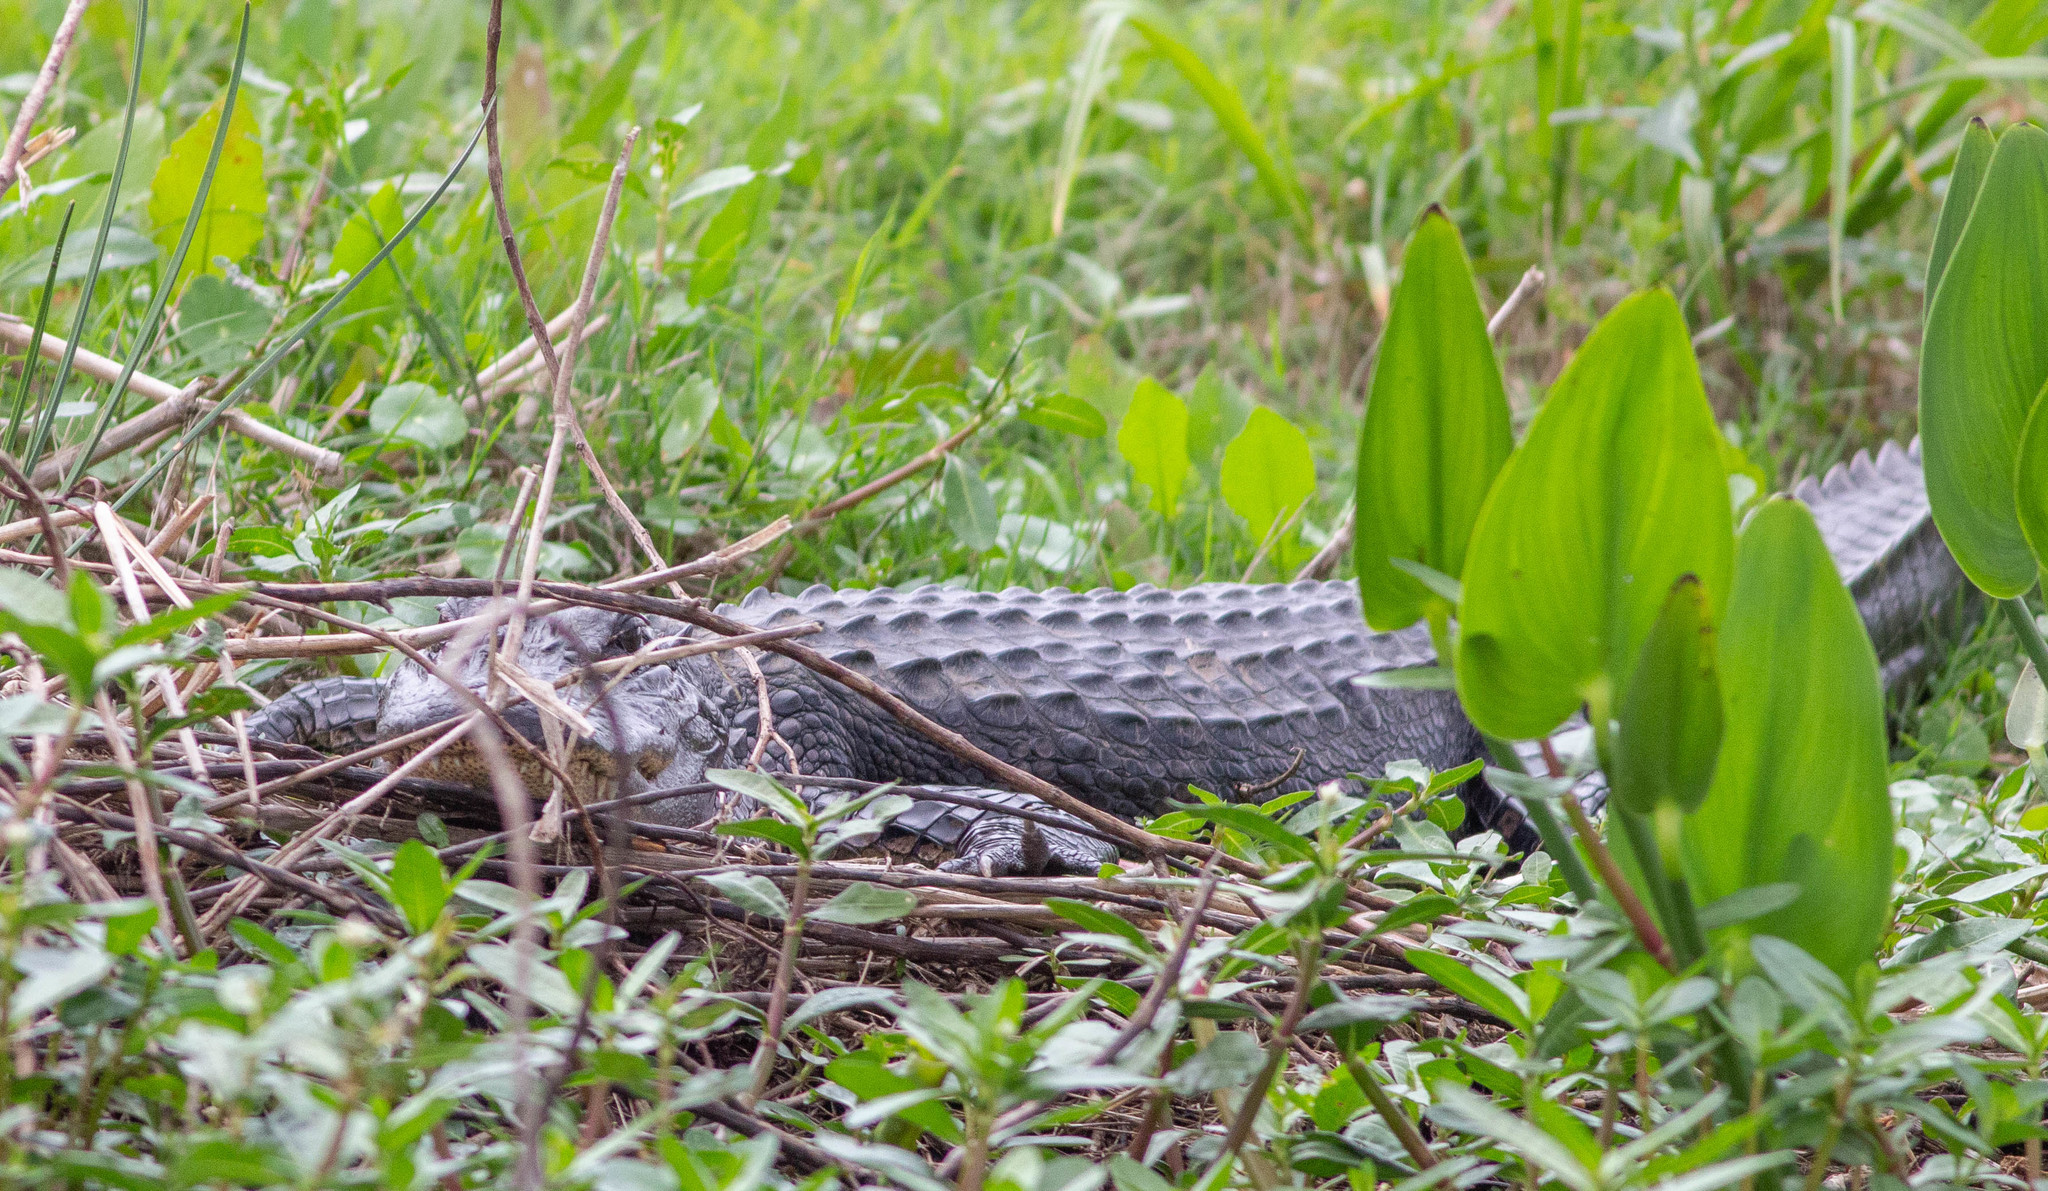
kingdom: Animalia
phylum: Chordata
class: Crocodylia
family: Alligatoridae
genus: Alligator
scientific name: Alligator mississippiensis
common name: American alligator
